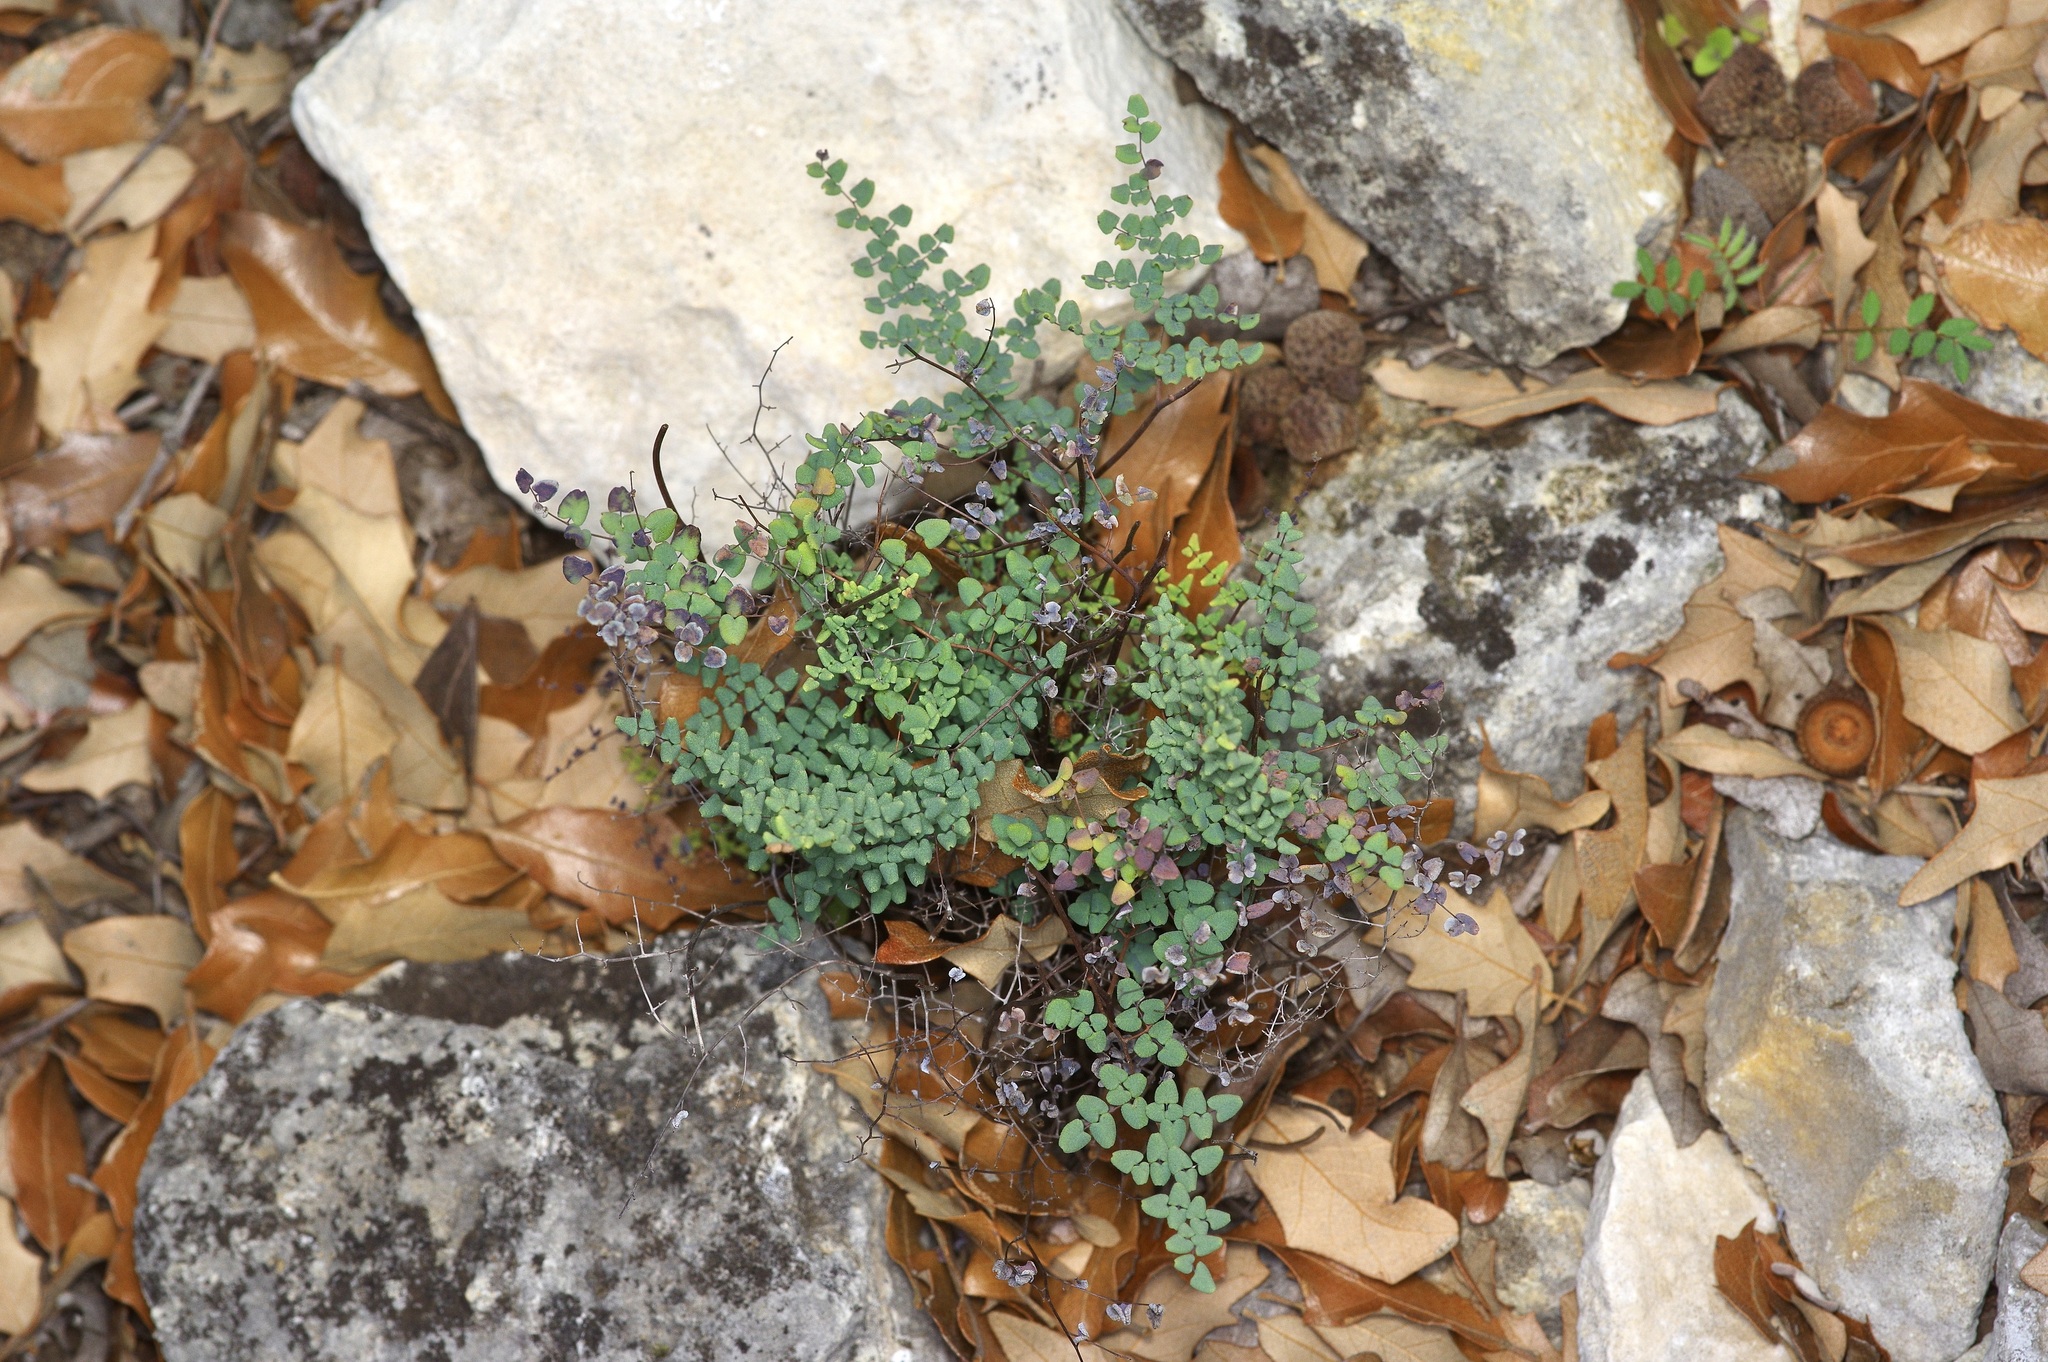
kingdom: Plantae
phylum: Tracheophyta
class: Polypodiopsida
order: Polypodiales
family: Pteridaceae
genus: Argyrochosma
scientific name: Argyrochosma microphylla
